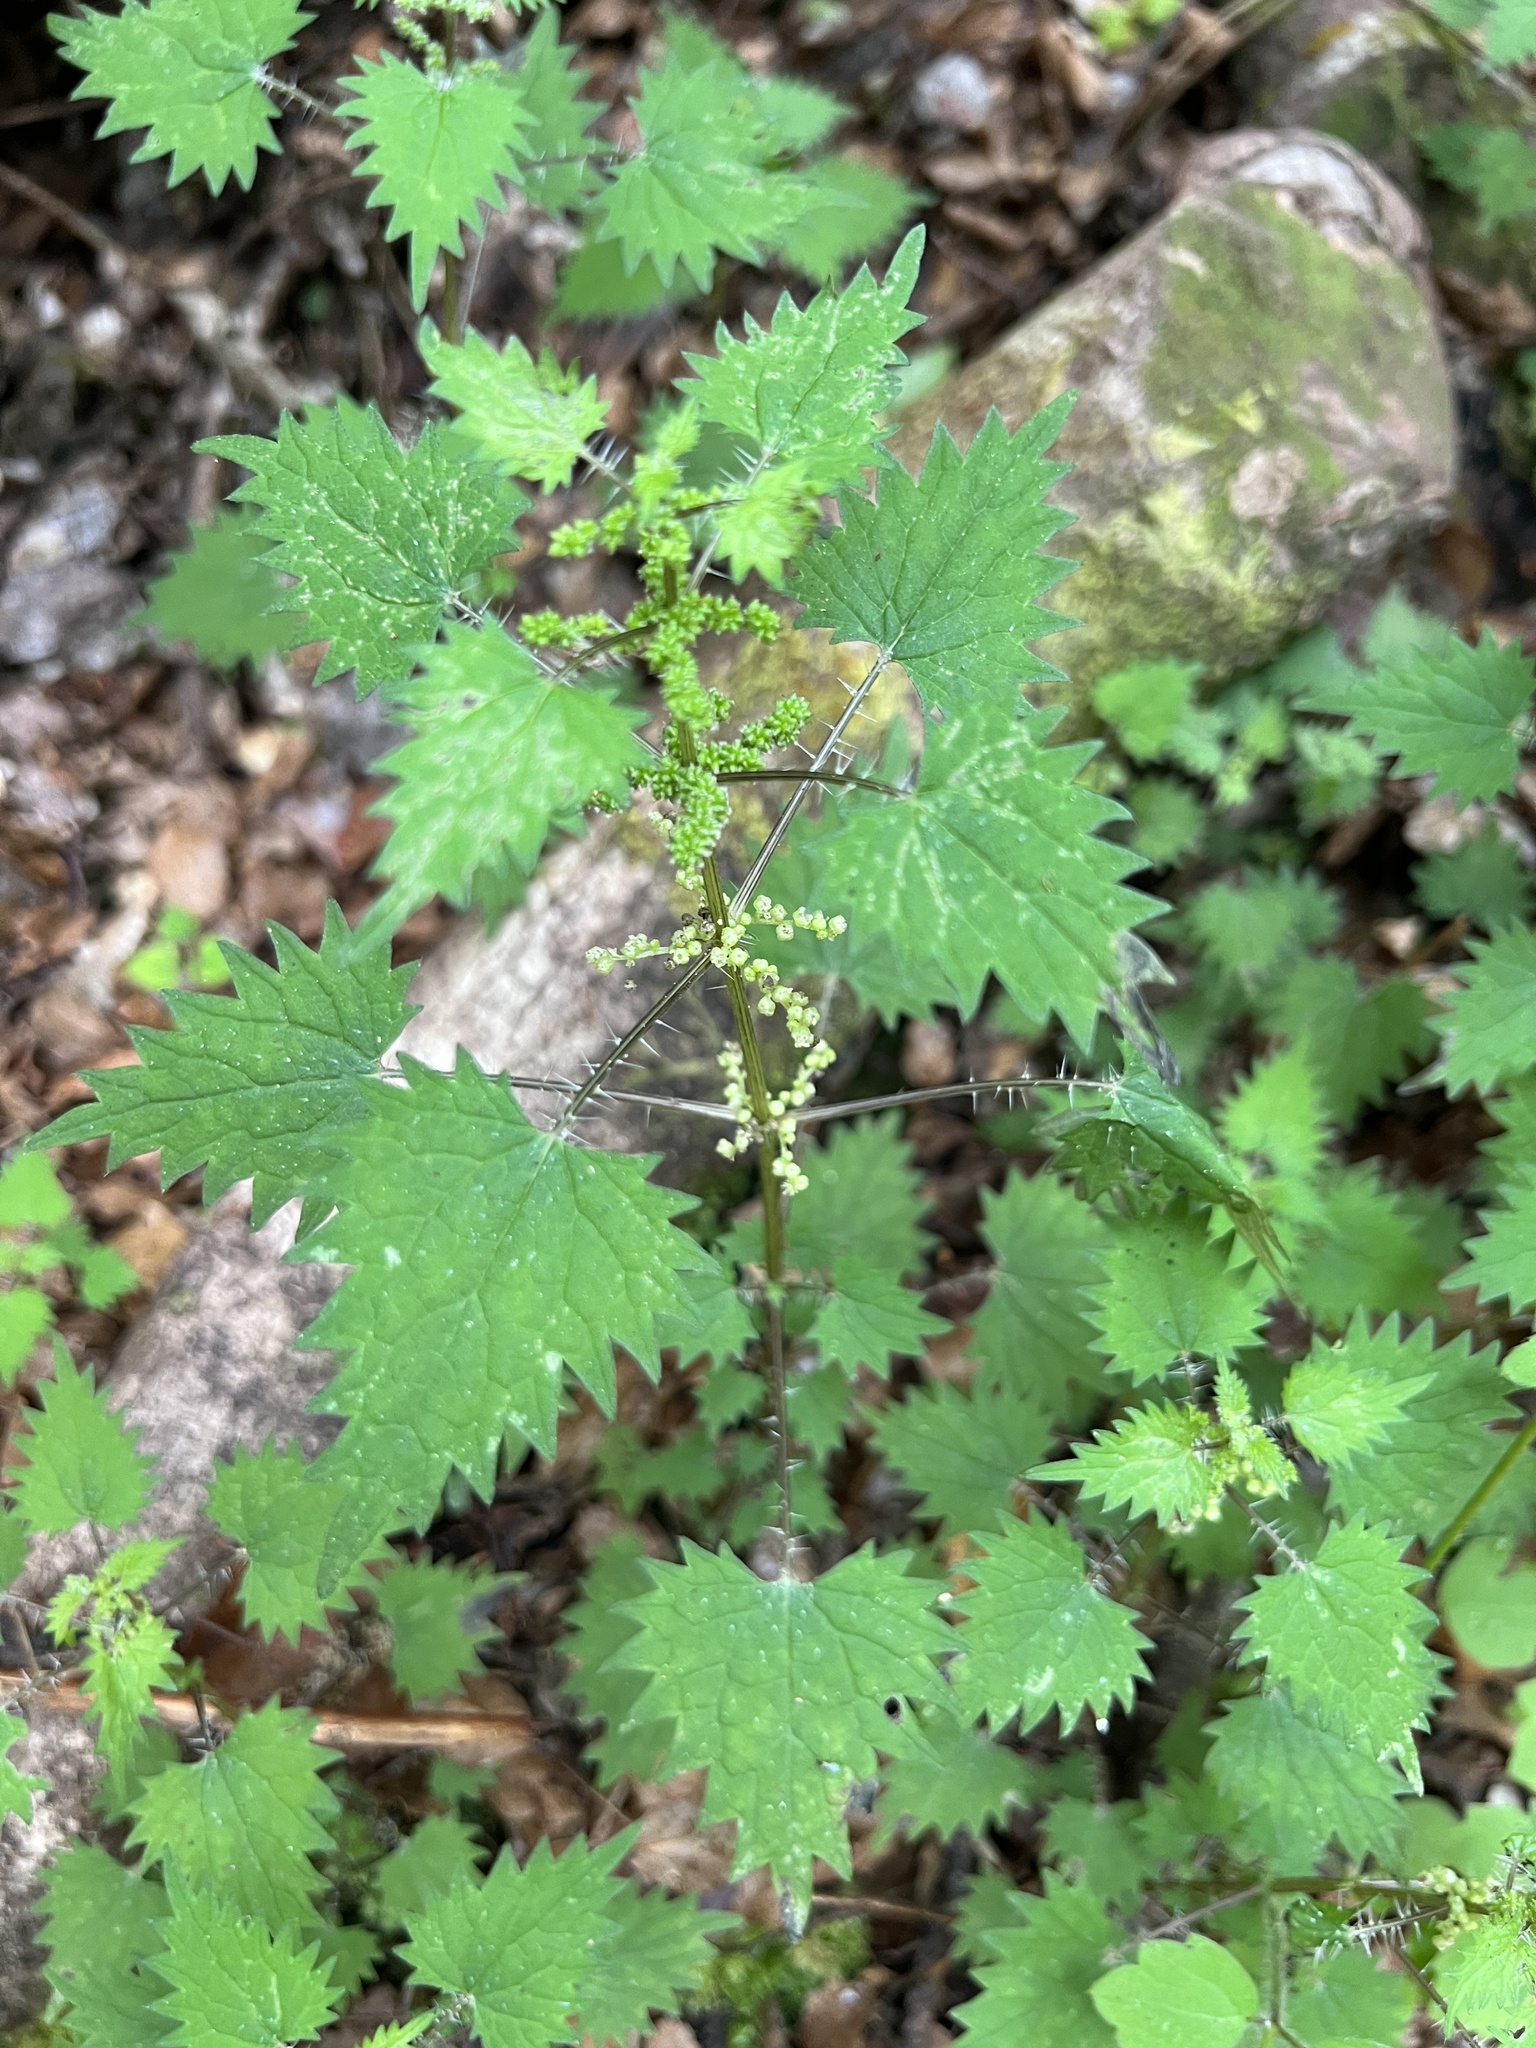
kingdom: Plantae
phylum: Tracheophyta
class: Magnoliopsida
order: Rosales
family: Urticaceae
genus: Urtica
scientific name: Urtica sykesii
